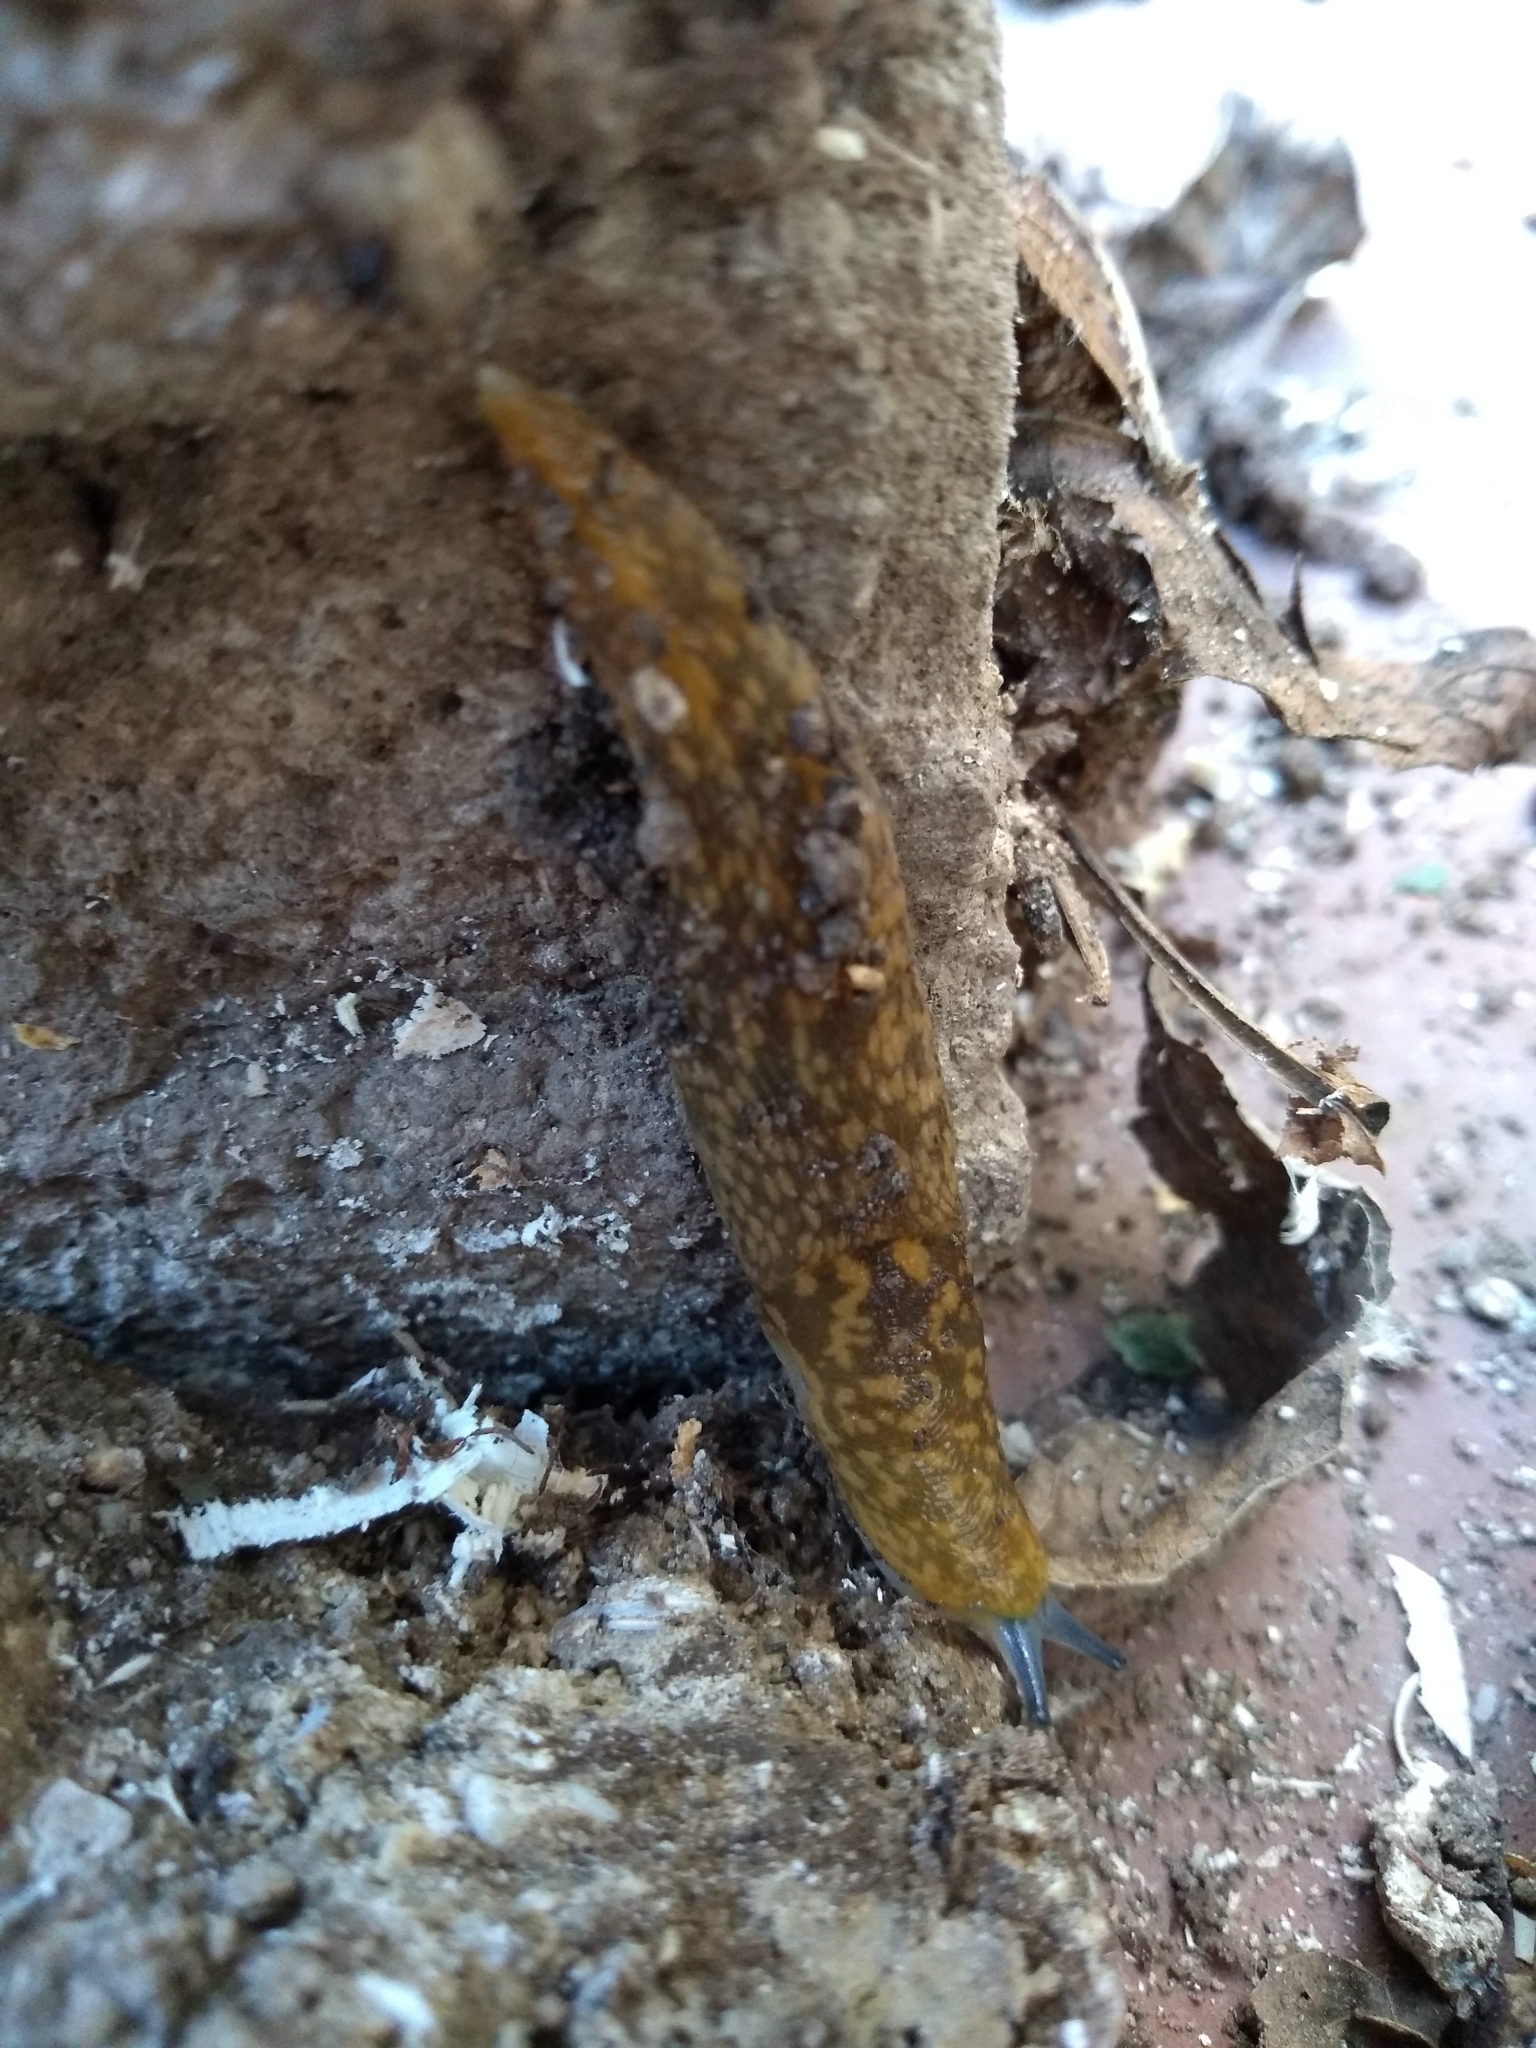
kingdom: Animalia
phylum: Mollusca
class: Gastropoda
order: Stylommatophora
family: Limacidae
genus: Limacus
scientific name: Limacus flavus
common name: Yellow gardenslug
